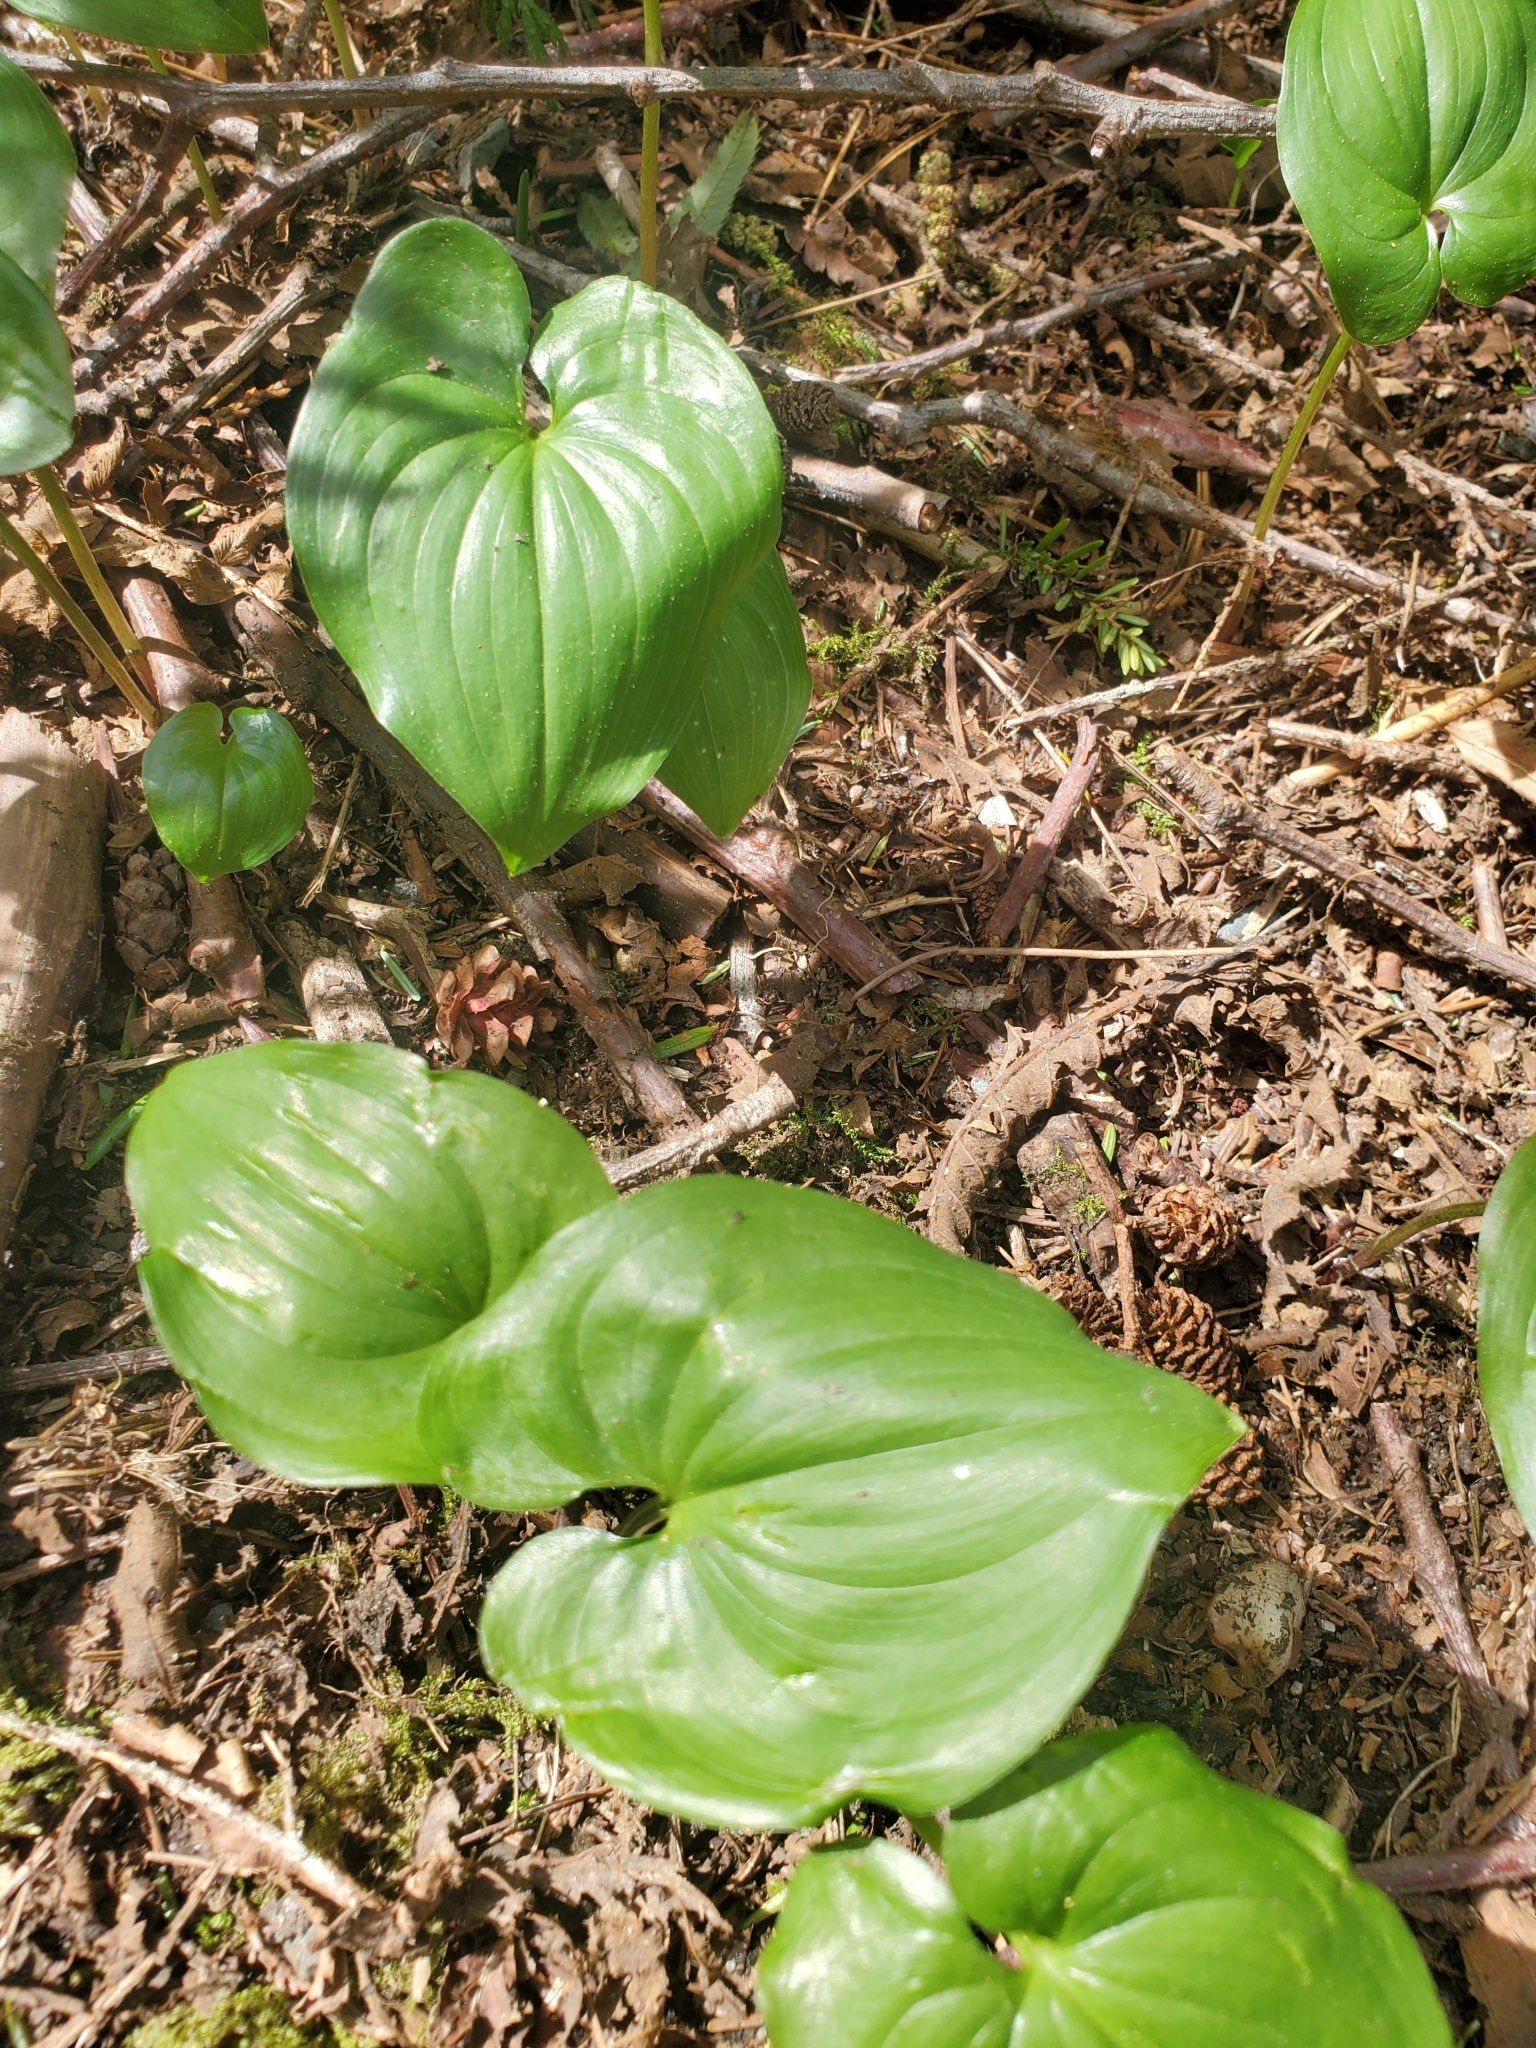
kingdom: Plantae
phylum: Tracheophyta
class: Liliopsida
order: Asparagales
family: Asparagaceae
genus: Maianthemum
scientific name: Maianthemum dilatatum
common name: False lily-of-the-valley
